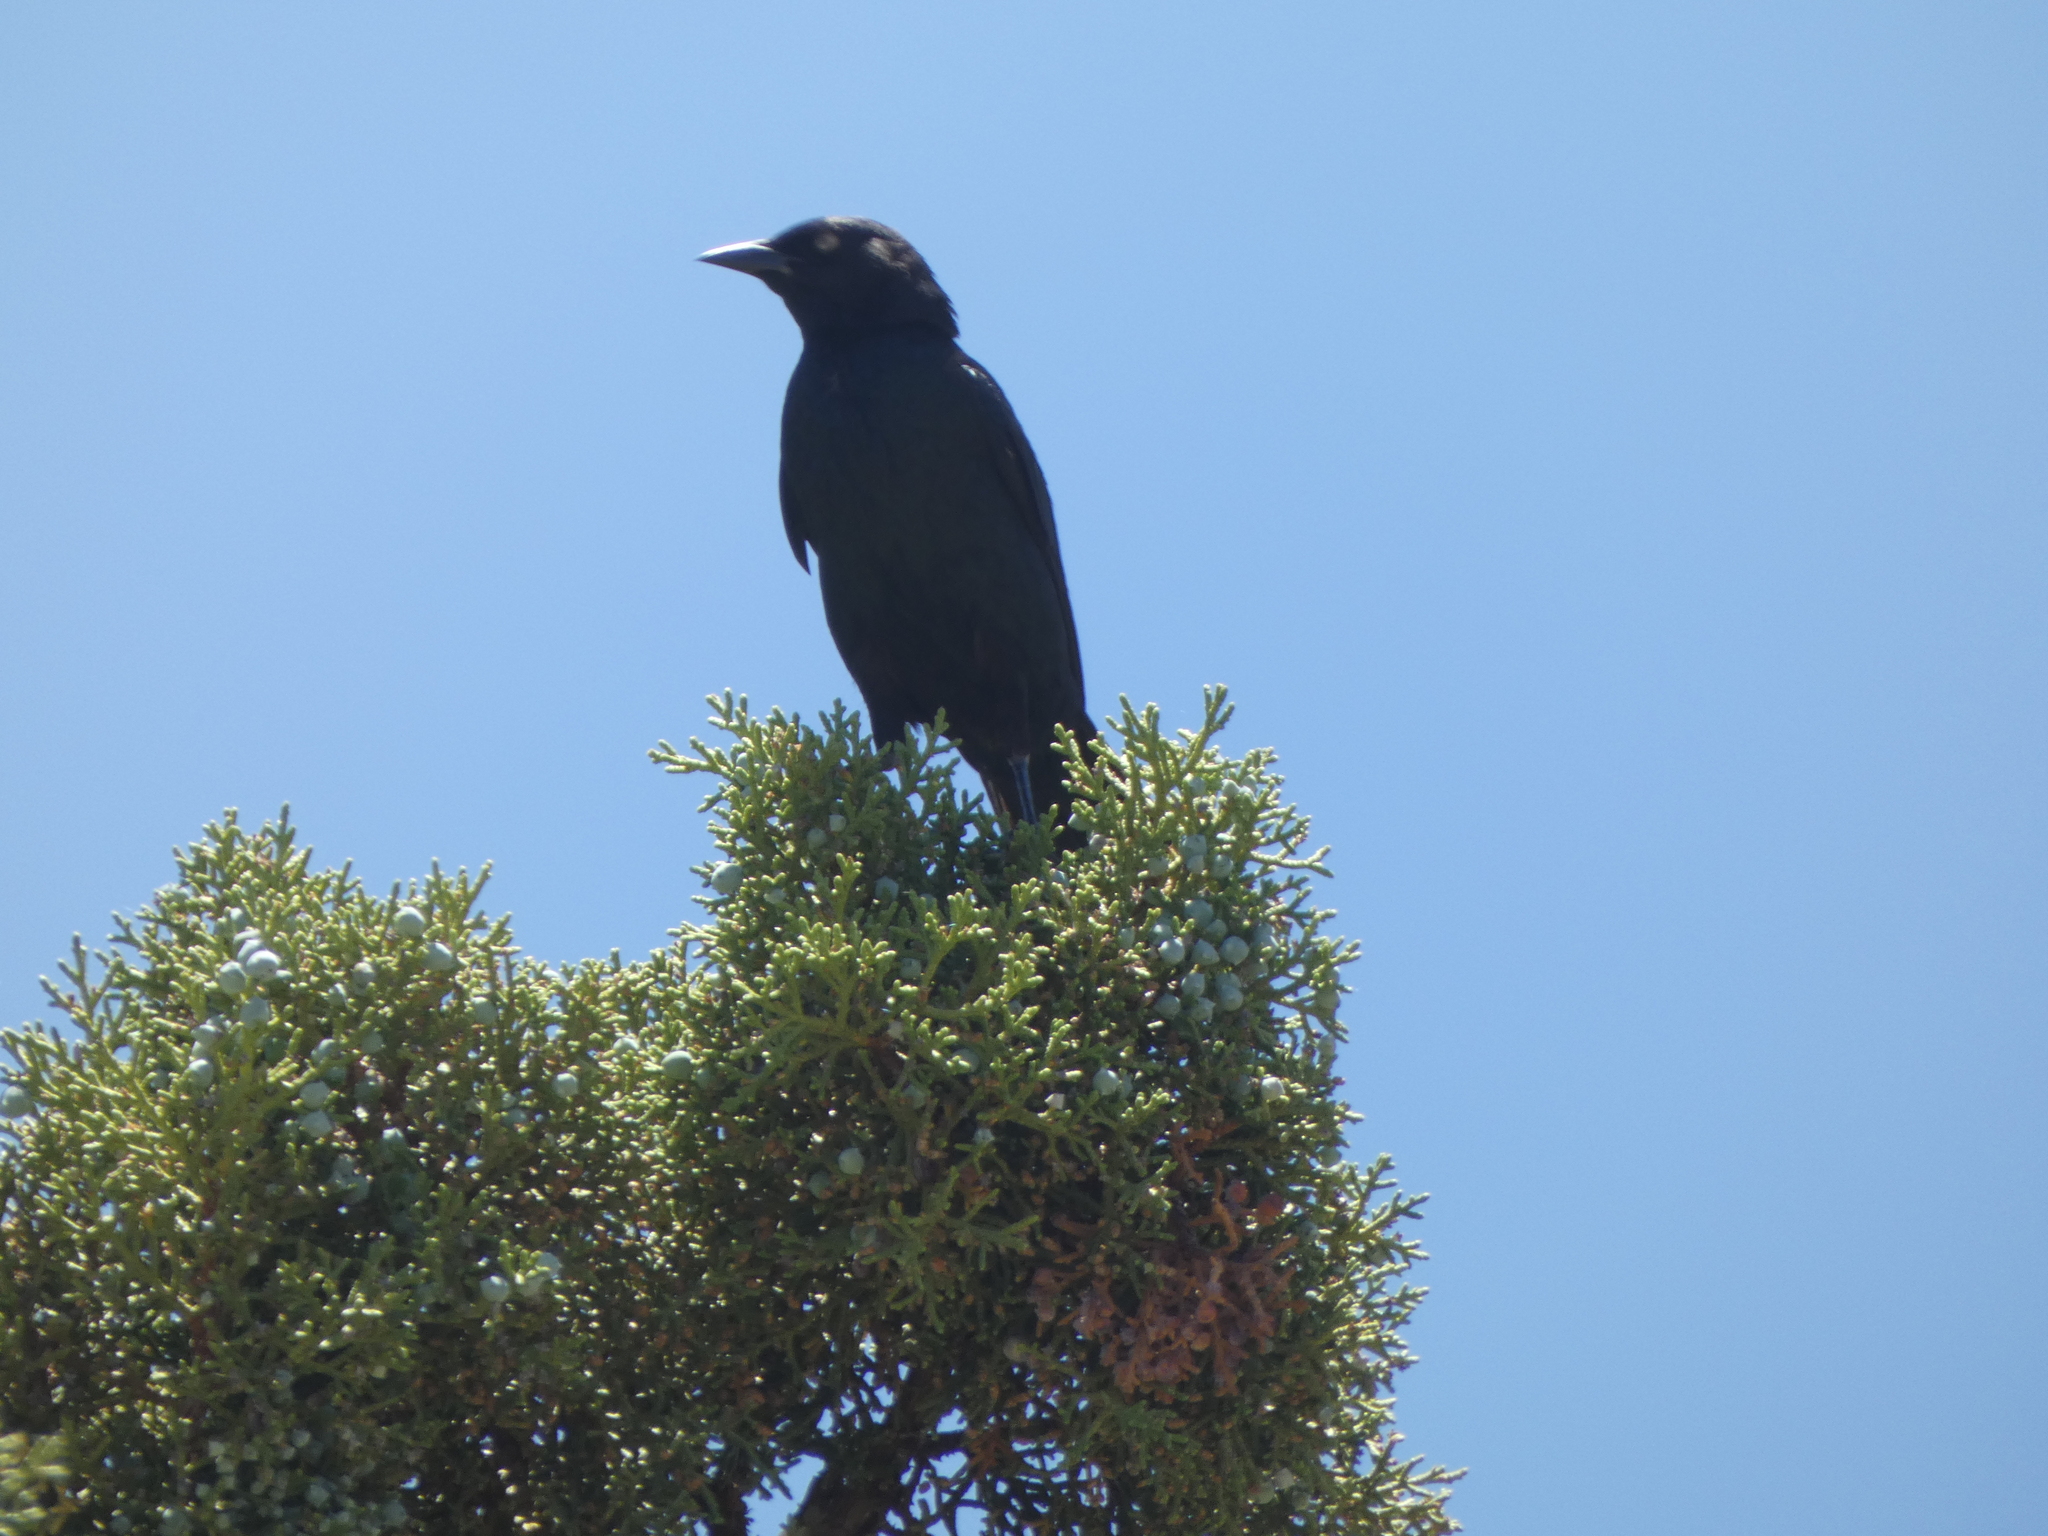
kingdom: Animalia
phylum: Chordata
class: Aves
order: Passeriformes
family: Icteridae
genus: Euphagus
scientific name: Euphagus cyanocephalus
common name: Brewer's blackbird
